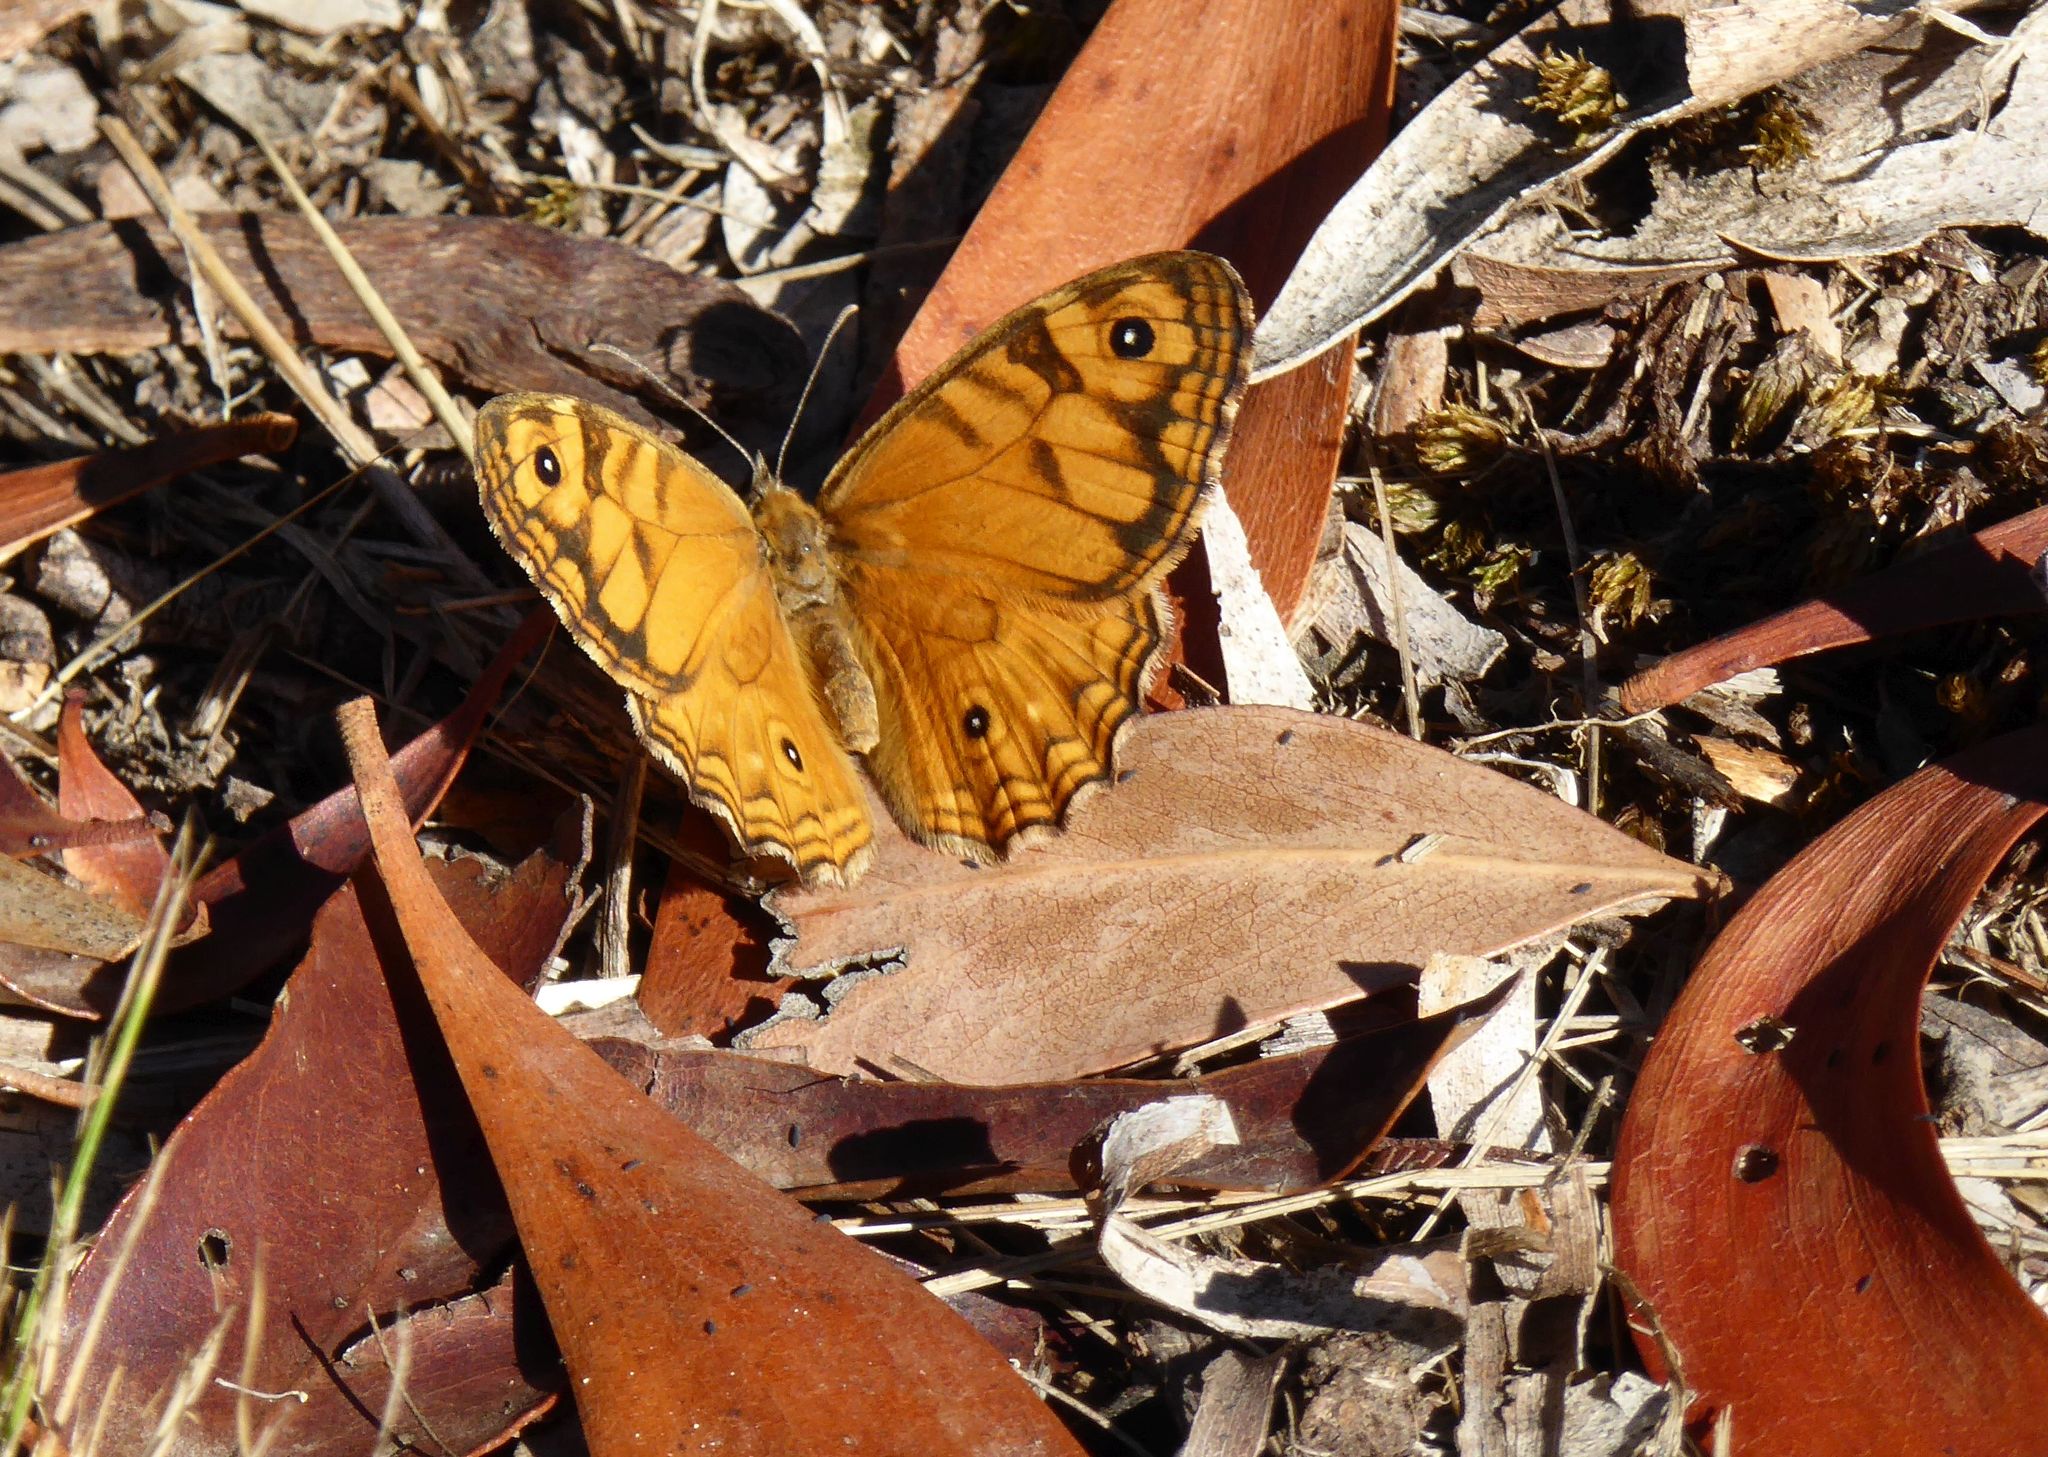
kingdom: Animalia
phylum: Arthropoda
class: Insecta
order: Lepidoptera
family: Nymphalidae
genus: Geitoneura
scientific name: Geitoneura acantha
